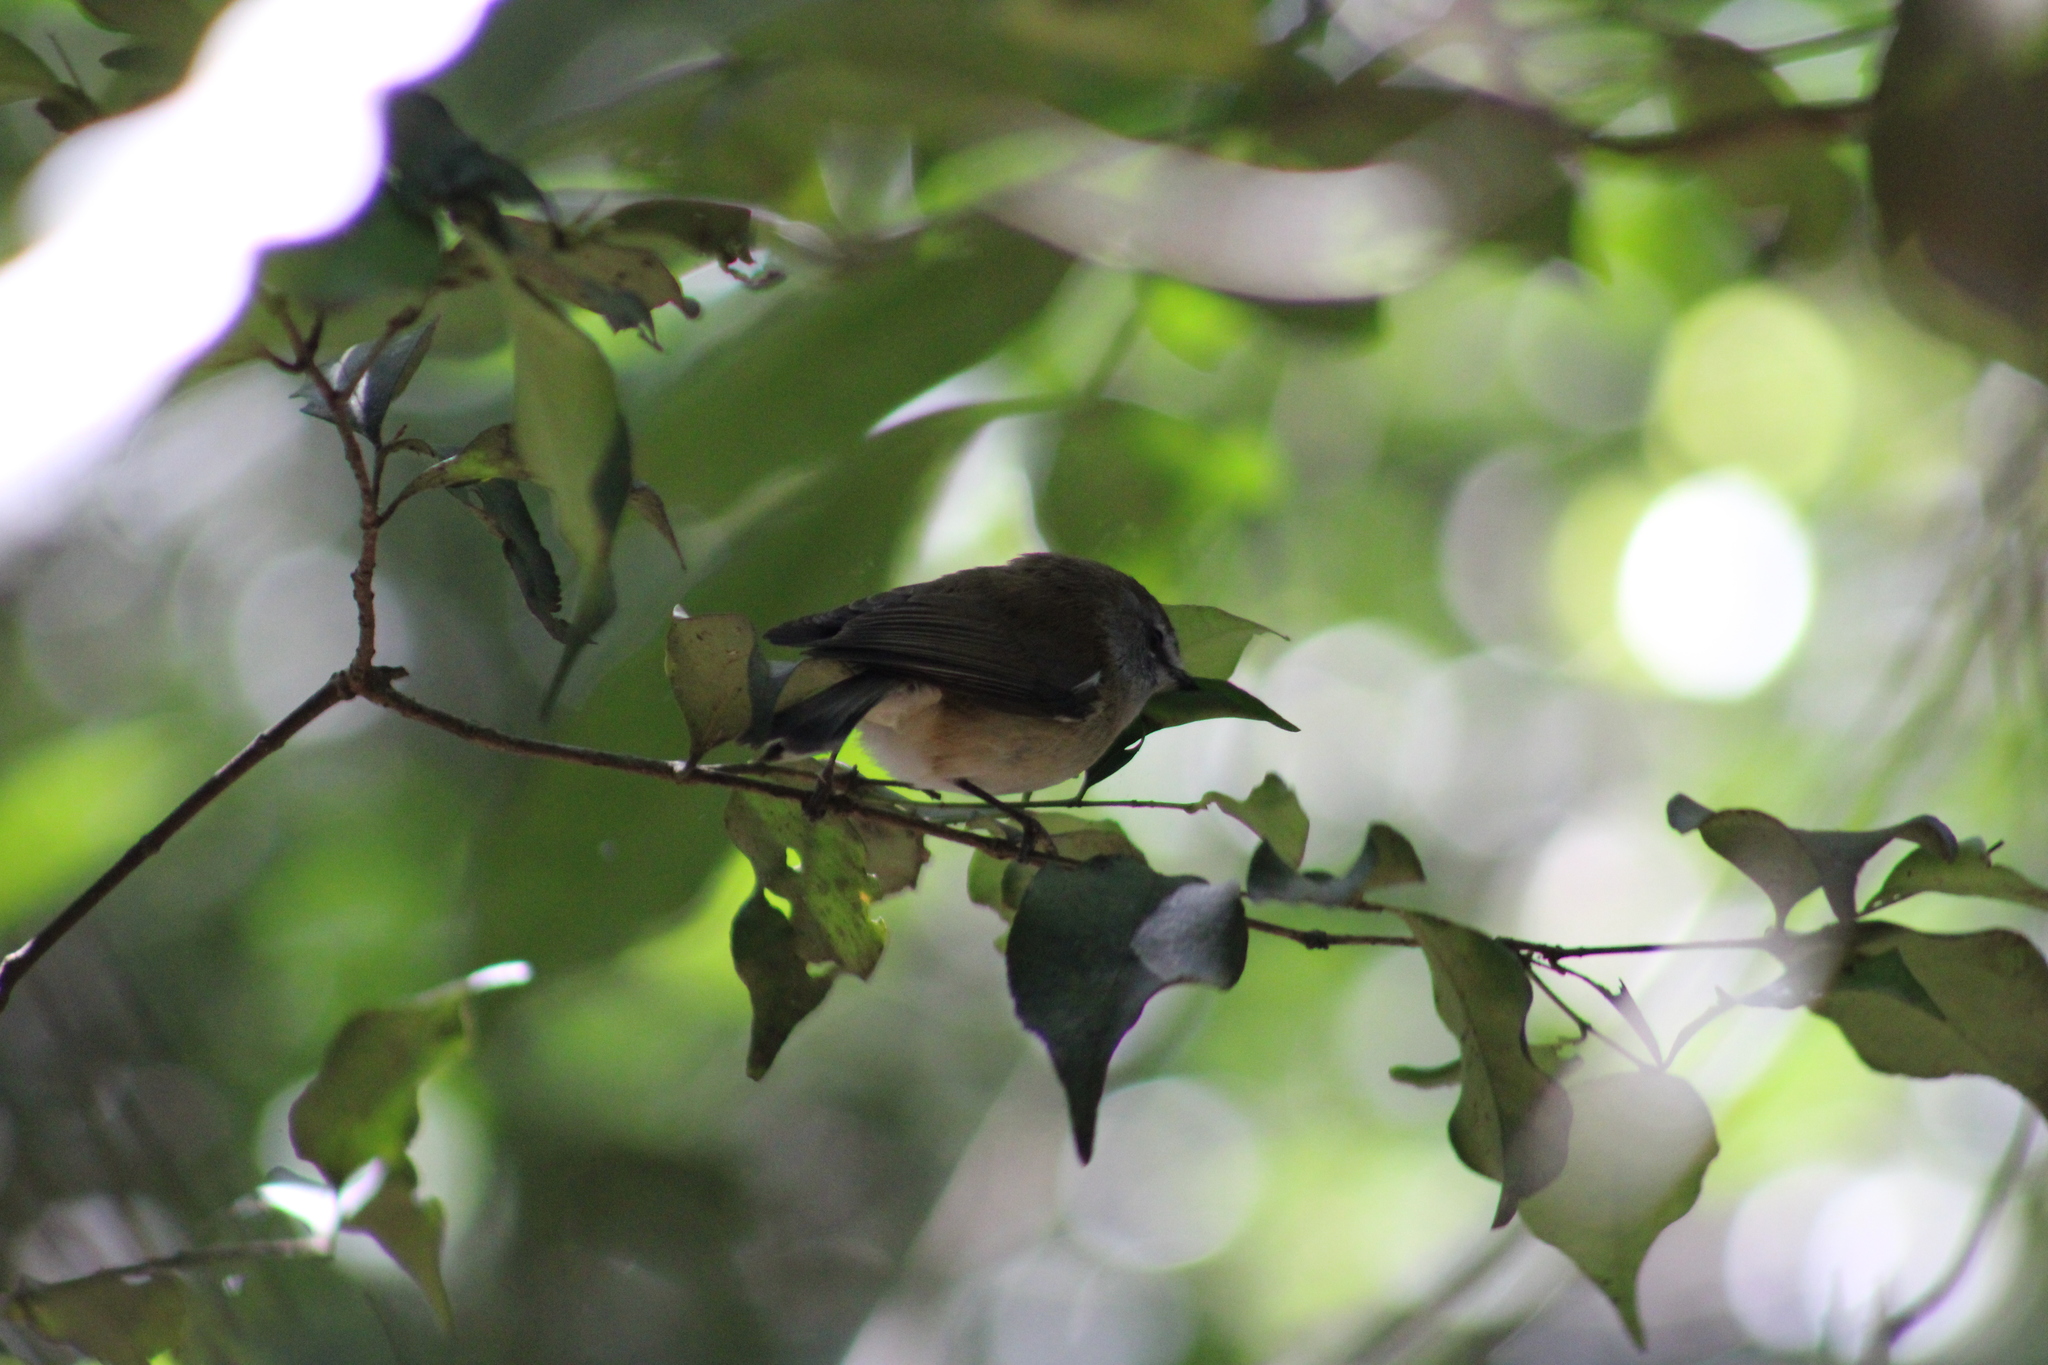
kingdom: Animalia
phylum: Chordata
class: Aves
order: Passeriformes
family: Acanthizidae
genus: Gerygone
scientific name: Gerygone mouki
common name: Brown gerygone
